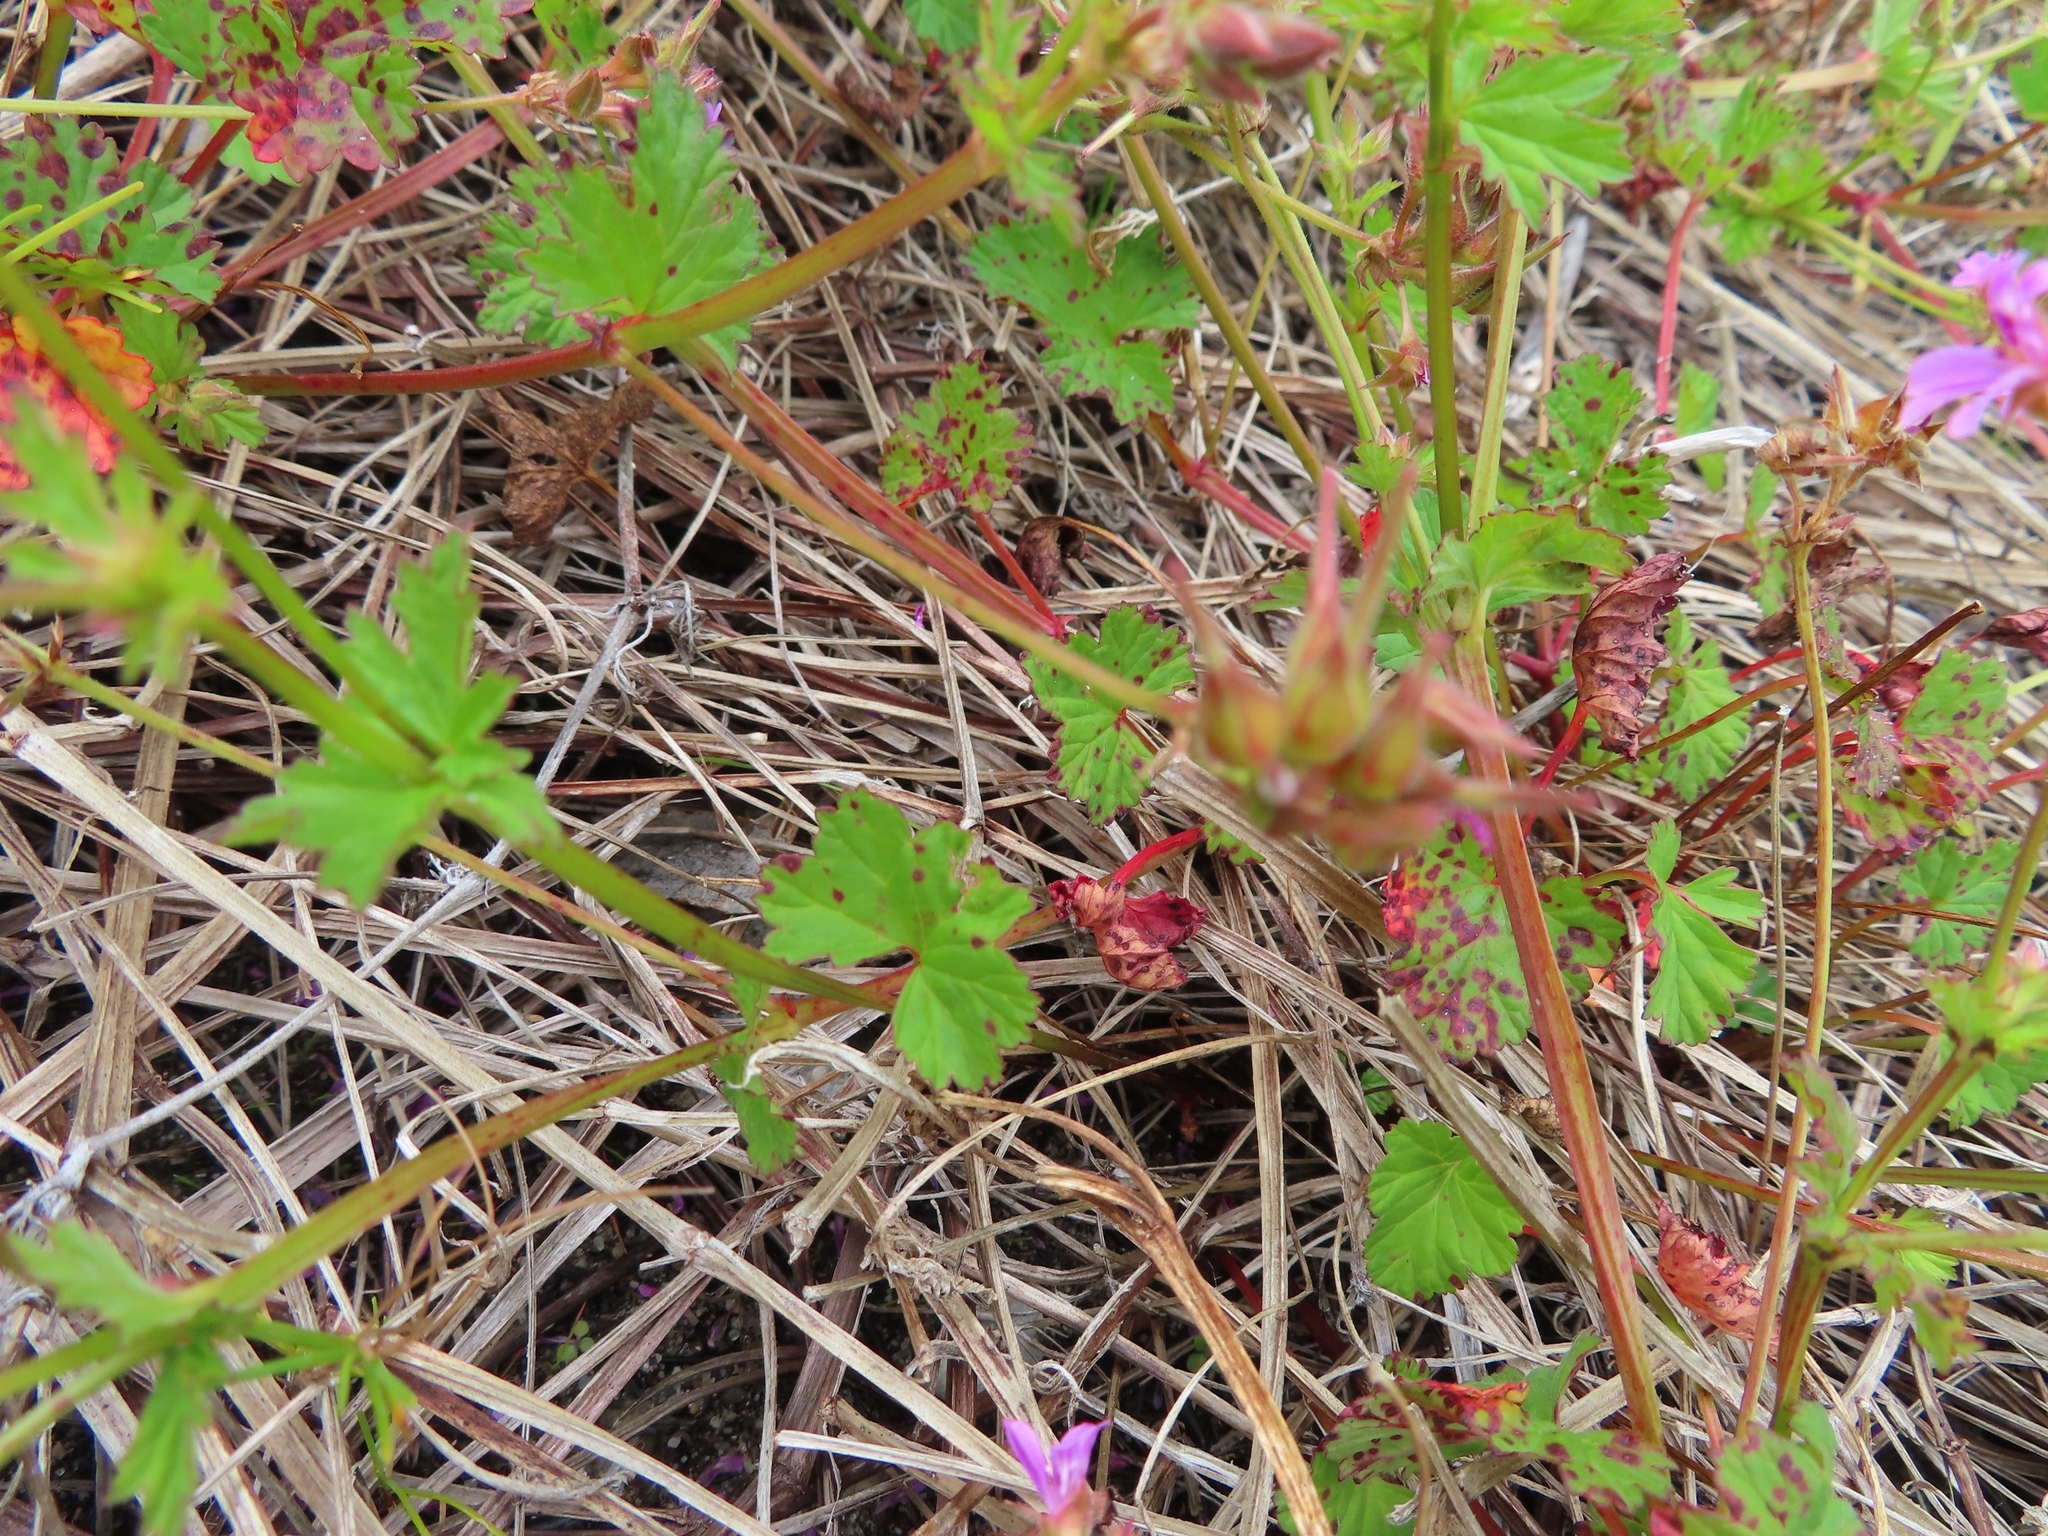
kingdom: Plantae
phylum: Tracheophyta
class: Magnoliopsida
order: Geraniales
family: Geraniaceae
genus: Pelargonium
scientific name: Pelargonium grossularioides
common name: Gooseberry geranium
